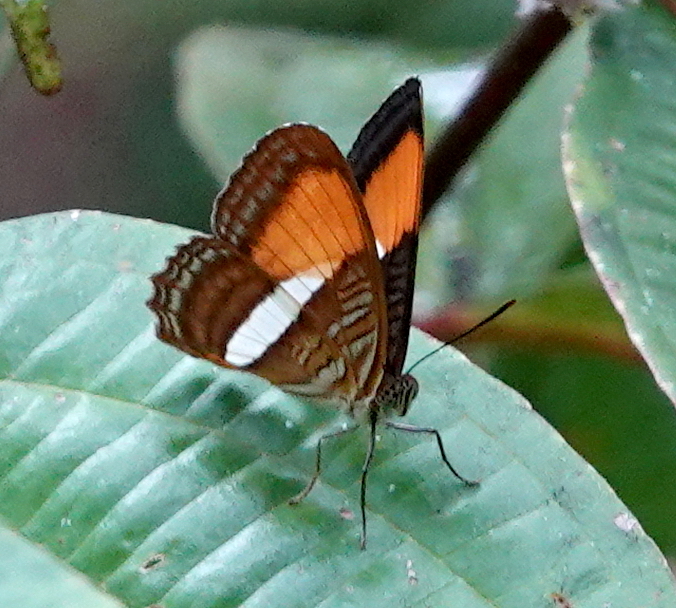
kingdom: Animalia
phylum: Arthropoda
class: Insecta
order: Lepidoptera
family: Nymphalidae
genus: Limenitis
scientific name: Limenitis cytherea
